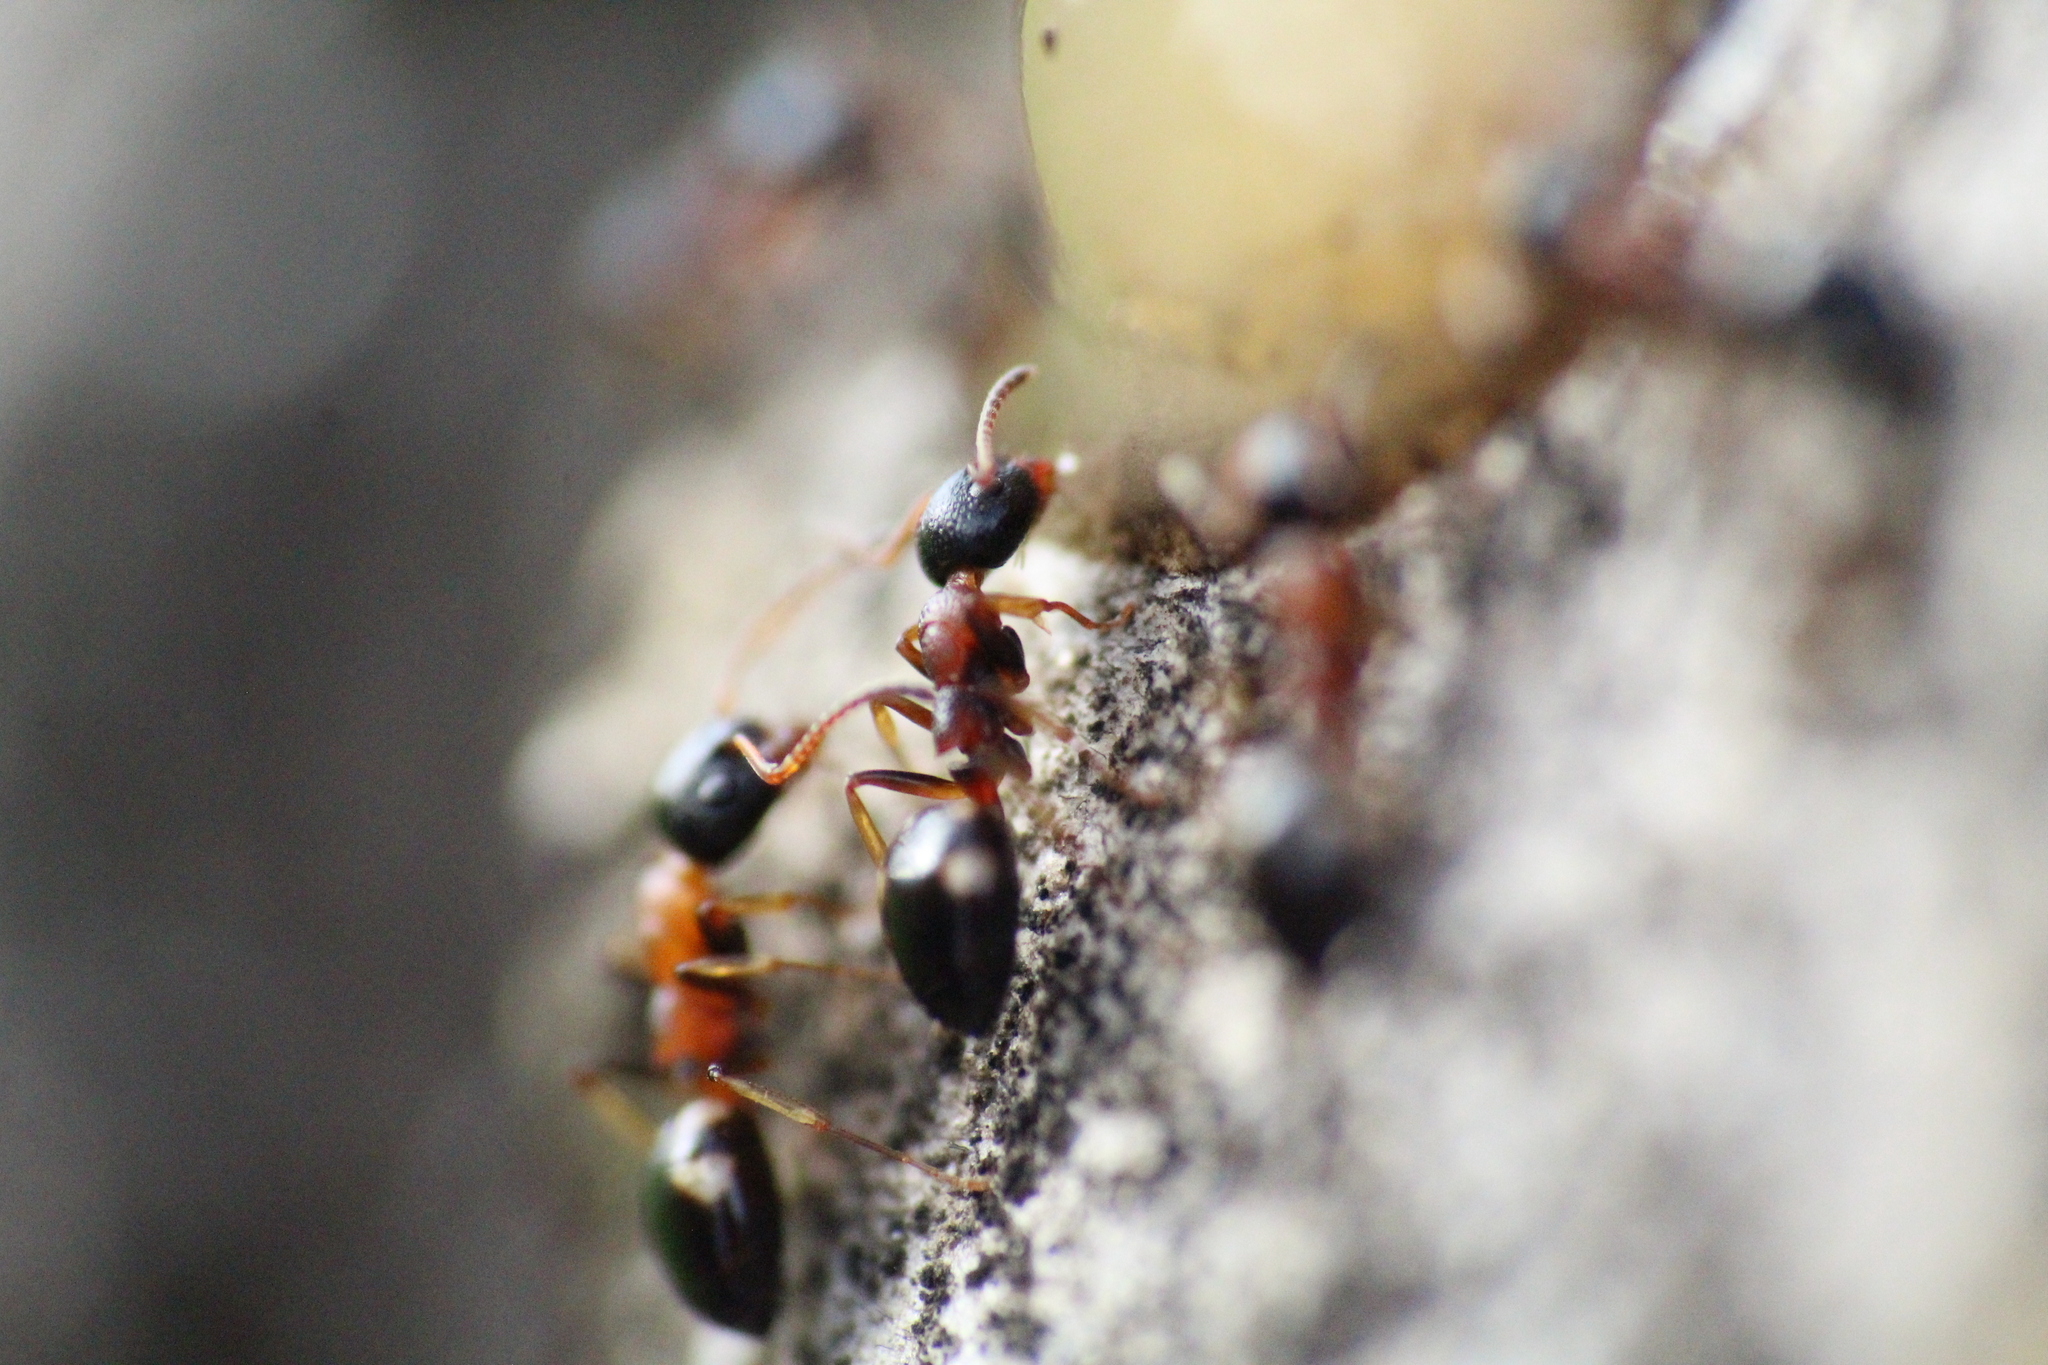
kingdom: Animalia
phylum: Arthropoda
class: Insecta
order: Hymenoptera
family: Formicidae
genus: Dolichoderus
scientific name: Dolichoderus quadripunctatus
